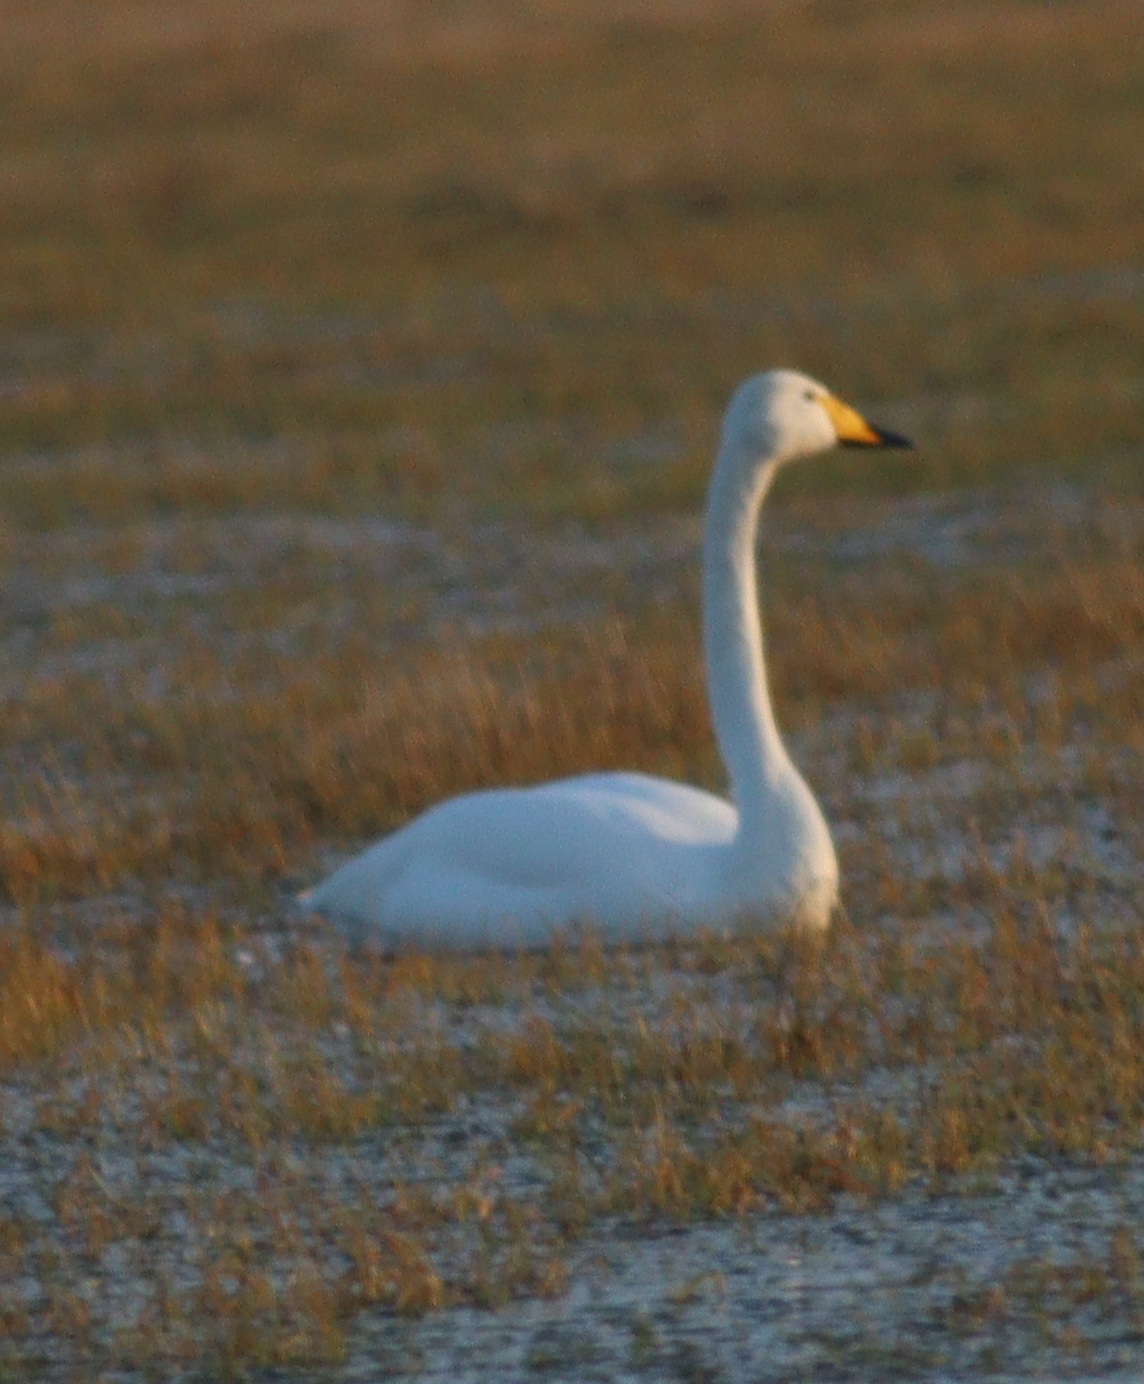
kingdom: Animalia
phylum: Chordata
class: Aves
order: Anseriformes
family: Anatidae
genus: Cygnus
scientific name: Cygnus cygnus
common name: Whooper swan
